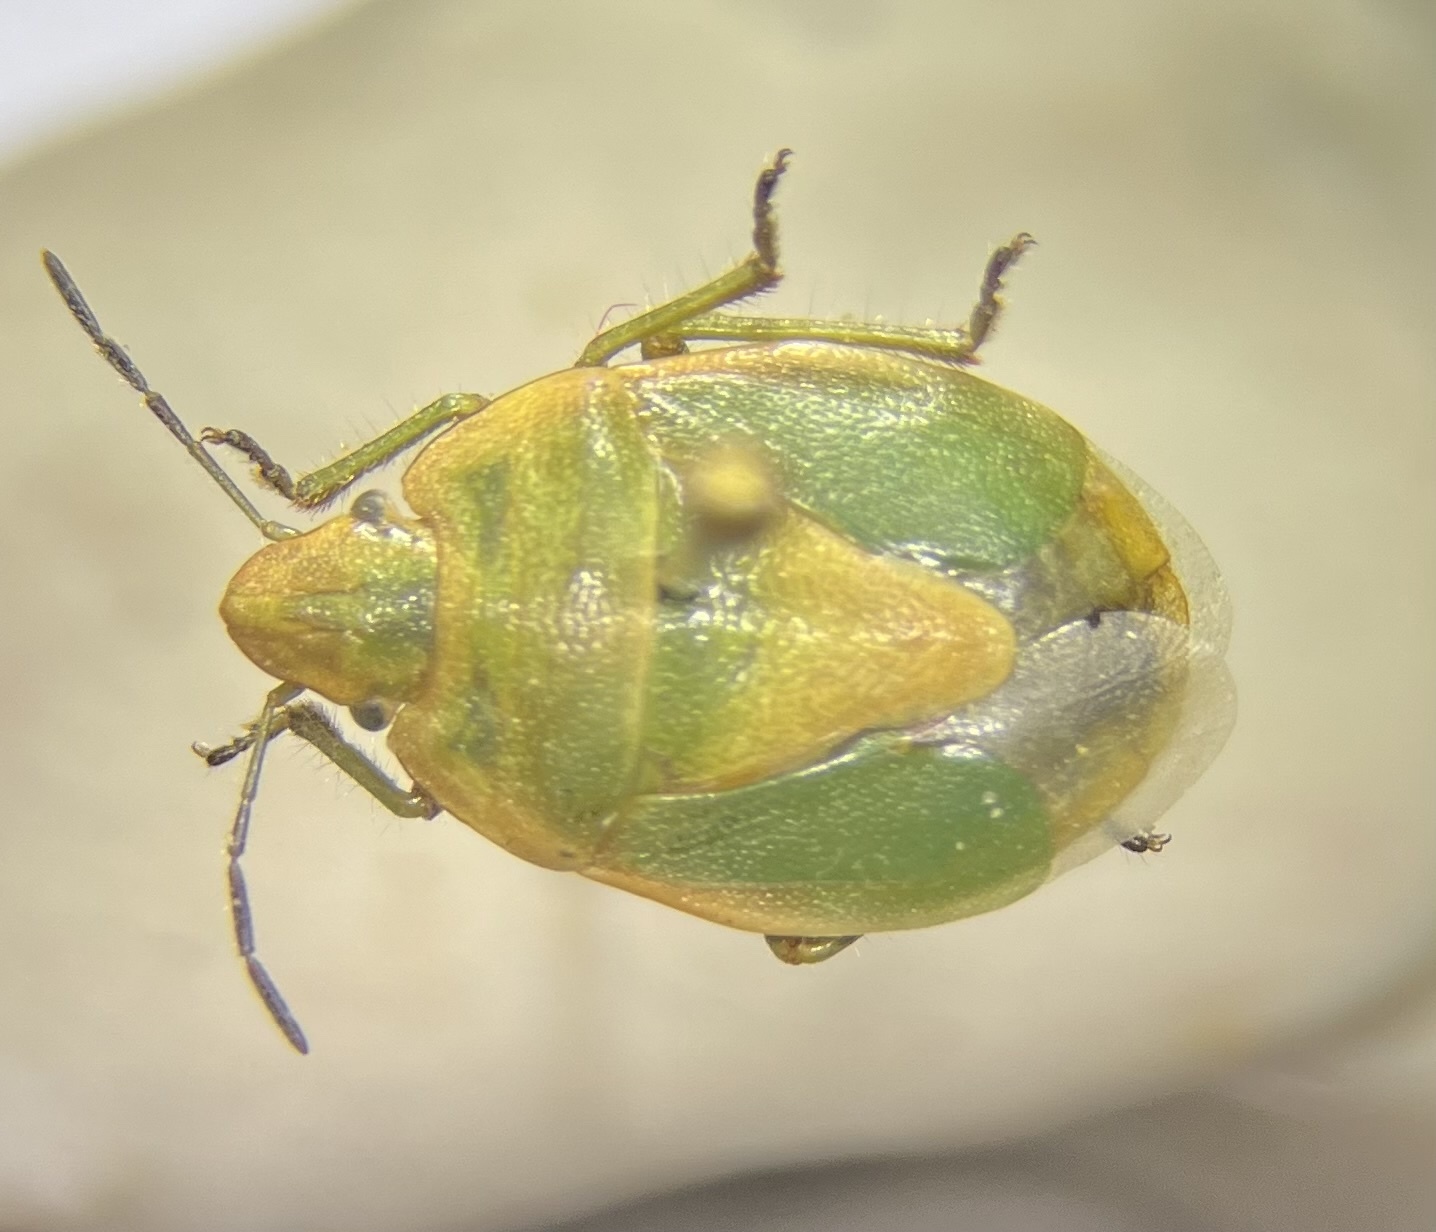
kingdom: Animalia
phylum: Arthropoda
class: Insecta
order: Hemiptera
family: Pentatomidae
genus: Chlorochroa
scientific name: Chlorochroa viridicata
